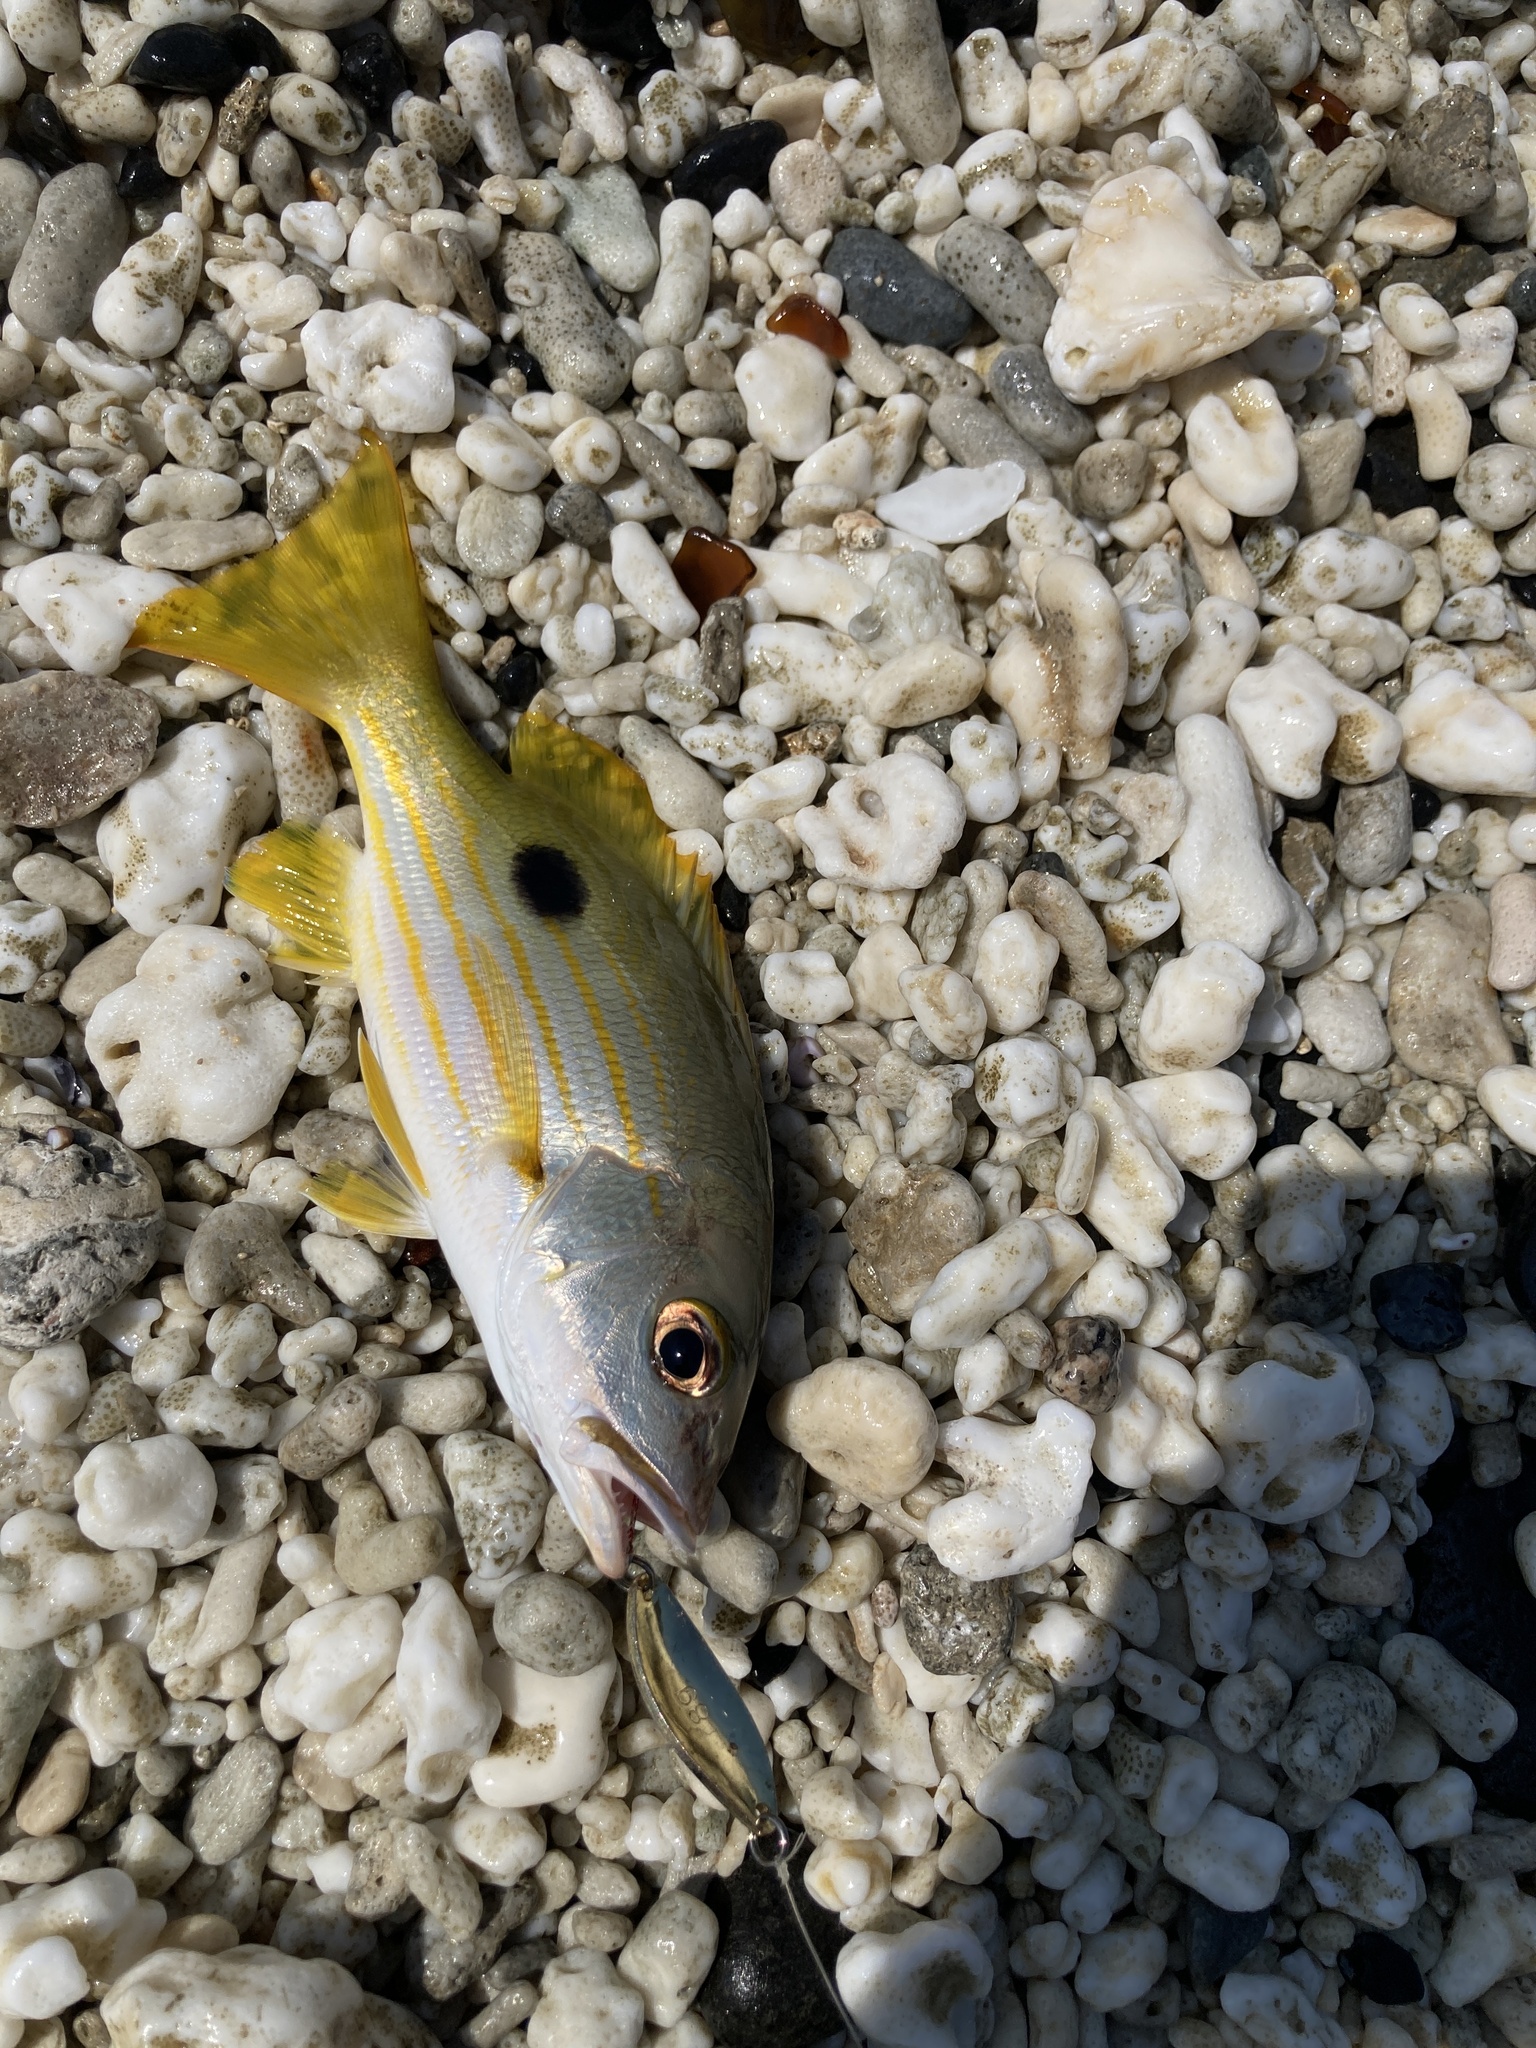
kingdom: Animalia
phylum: Chordata
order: Perciformes
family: Lutjanidae
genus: Lutjanus
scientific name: Lutjanus fulviflamma
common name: Blackspot snapper
